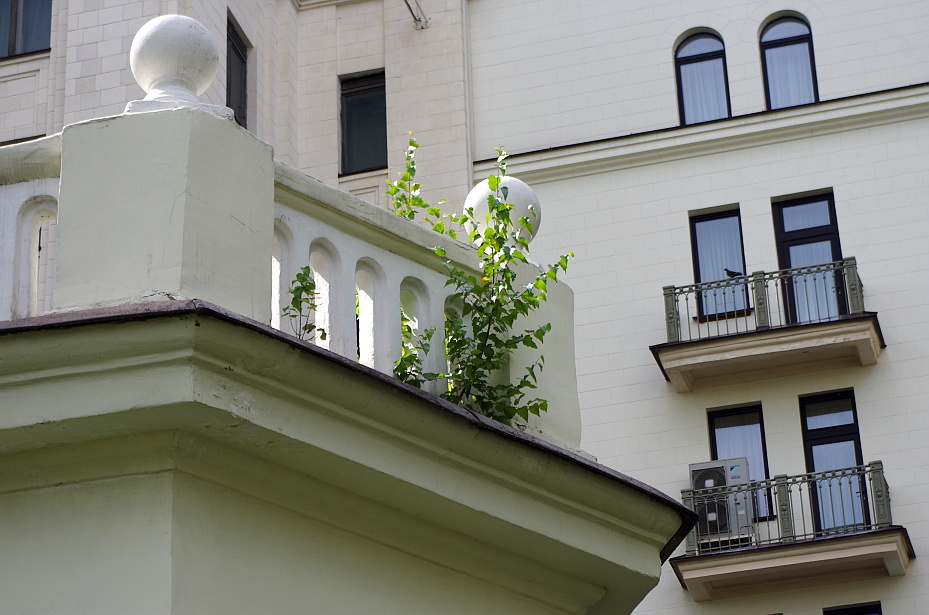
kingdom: Plantae
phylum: Tracheophyta
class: Magnoliopsida
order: Fagales
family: Betulaceae
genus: Betula
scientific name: Betula pendula
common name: Silver birch
